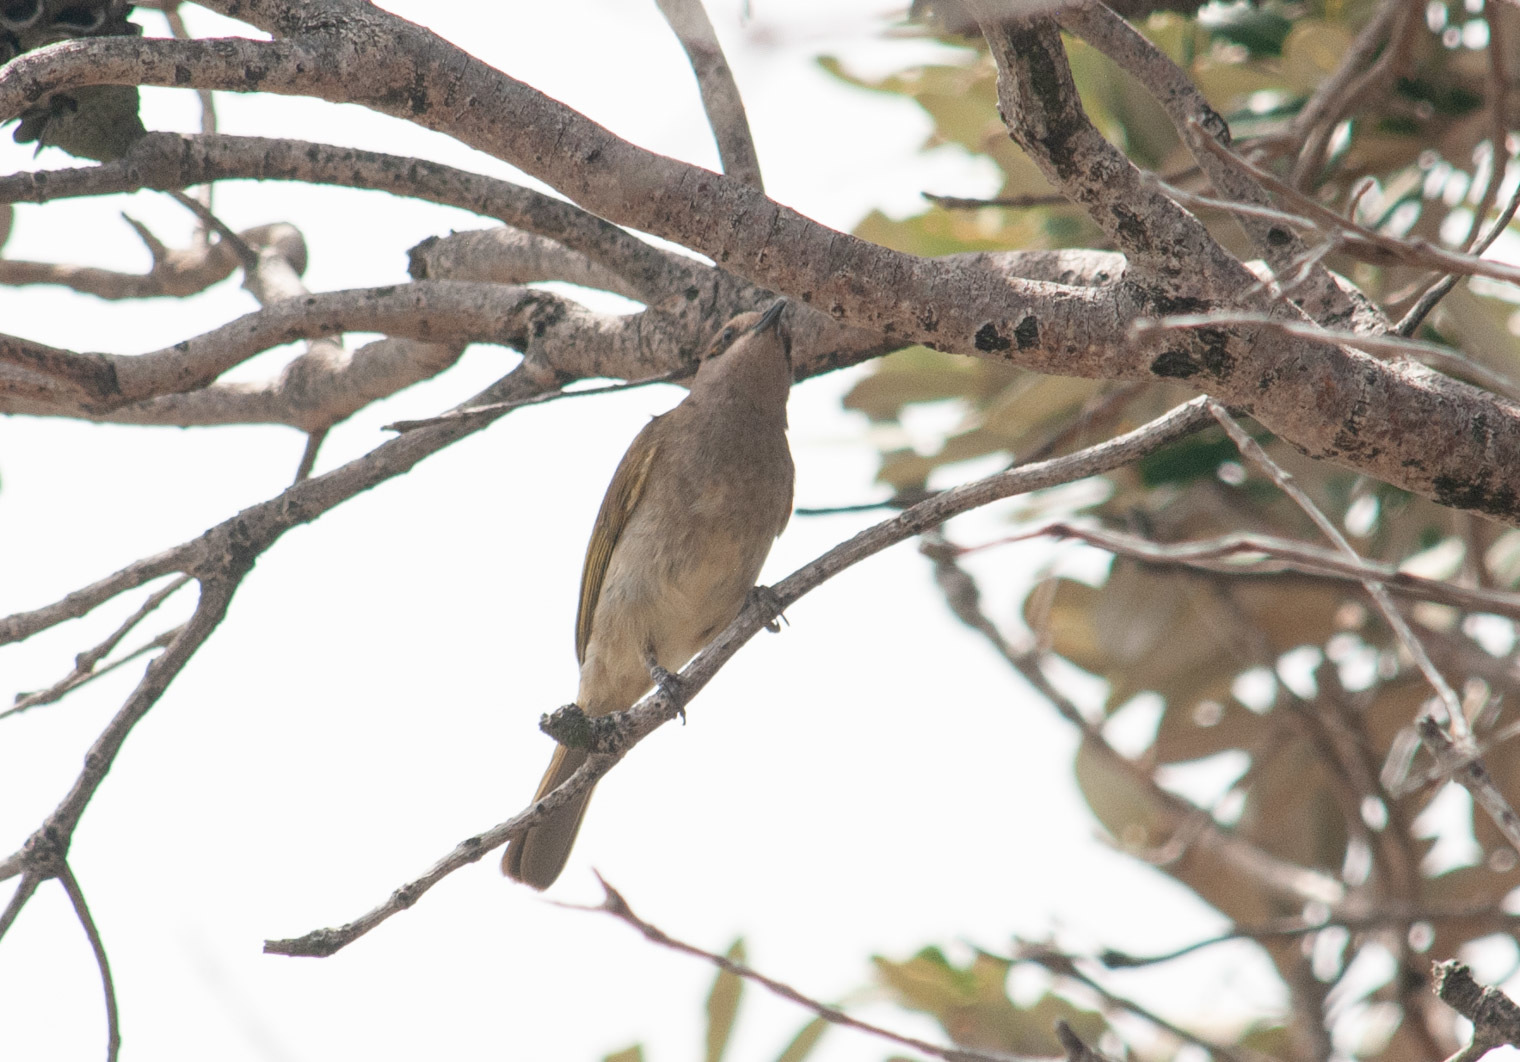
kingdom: Animalia
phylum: Chordata
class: Aves
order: Passeriformes
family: Meliphagidae
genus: Lichmera
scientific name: Lichmera indistincta
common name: Brown honeyeater
